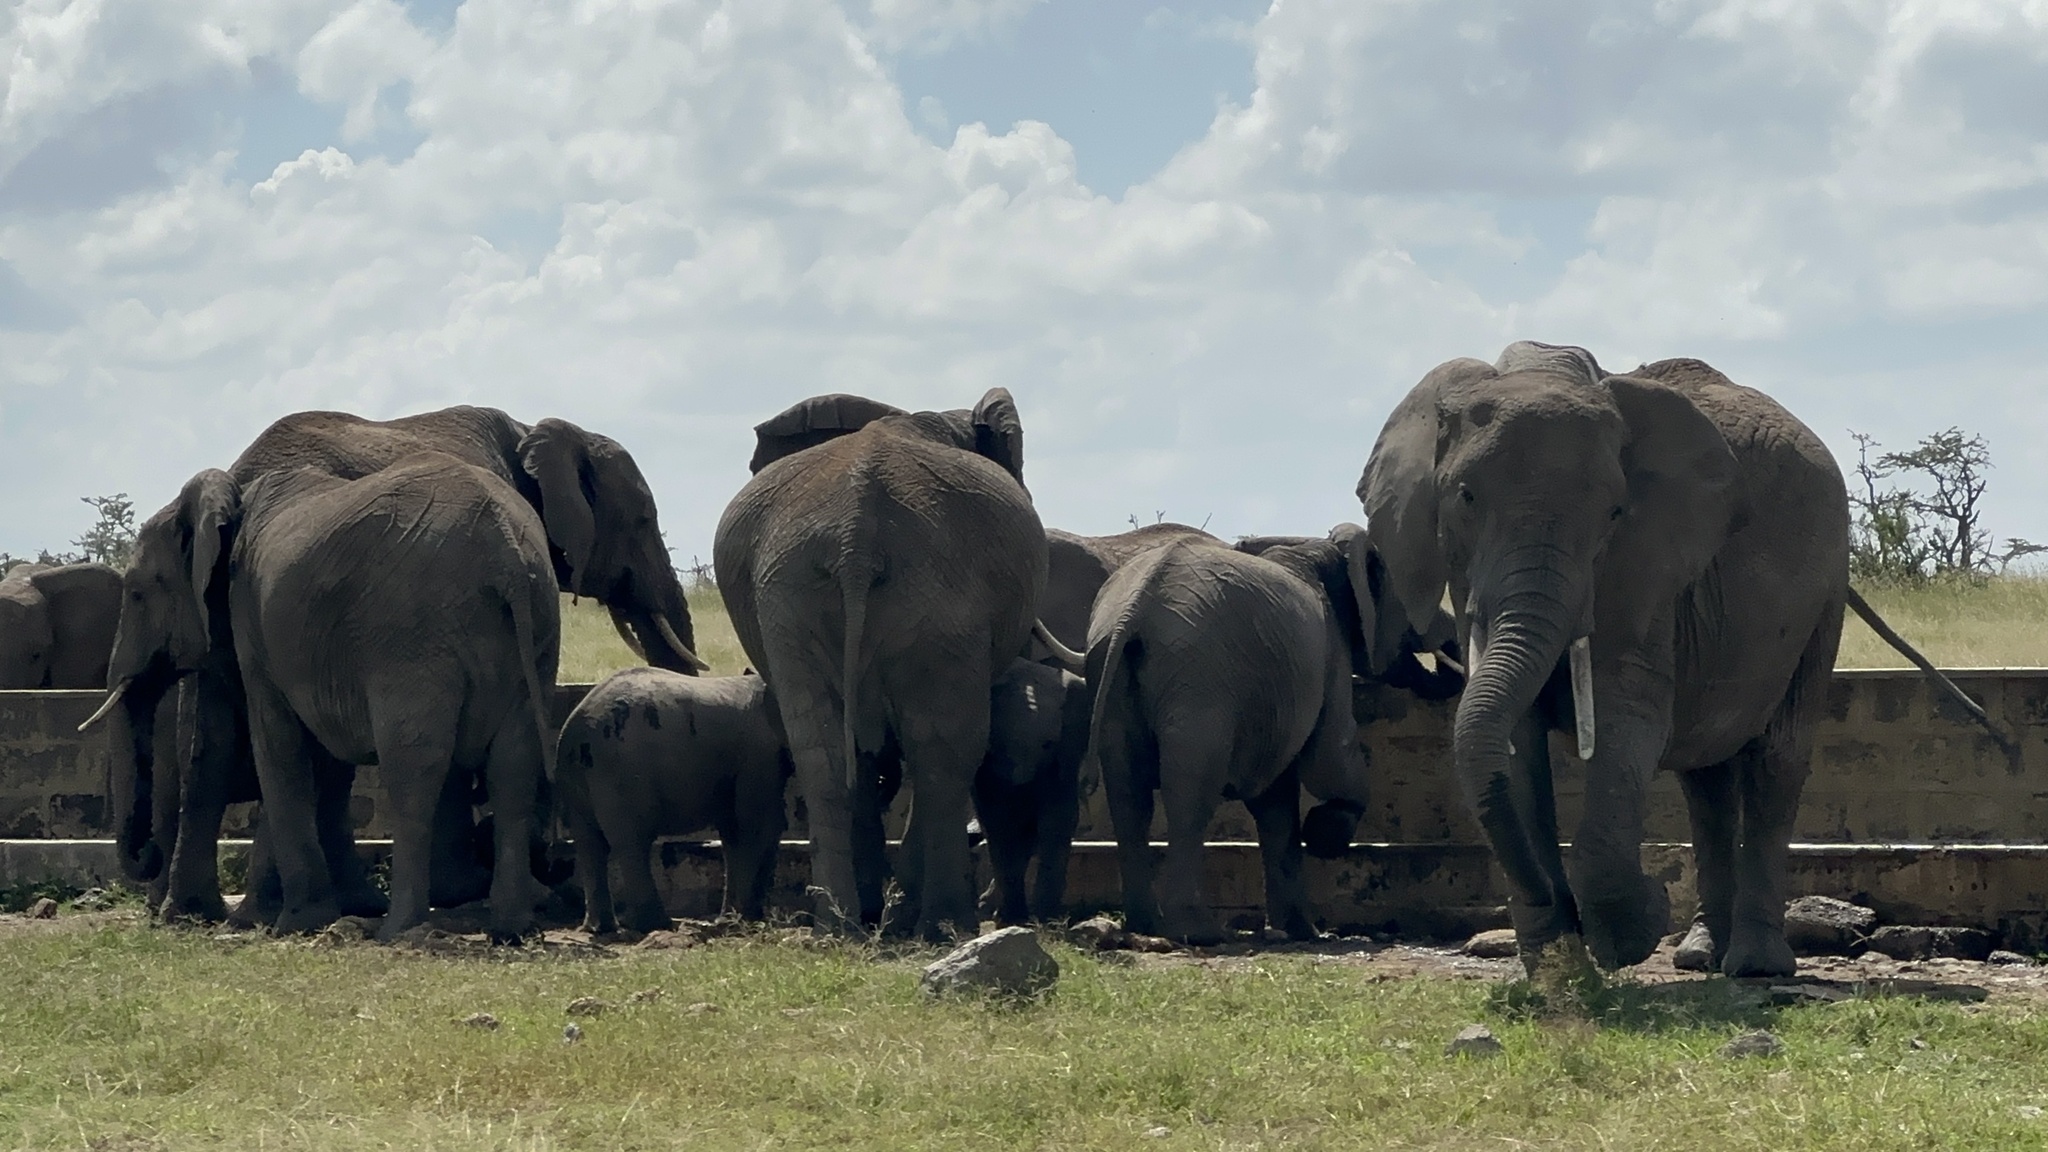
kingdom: Animalia
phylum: Chordata
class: Mammalia
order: Proboscidea
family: Elephantidae
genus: Loxodonta
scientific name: Loxodonta africana
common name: African elephant
